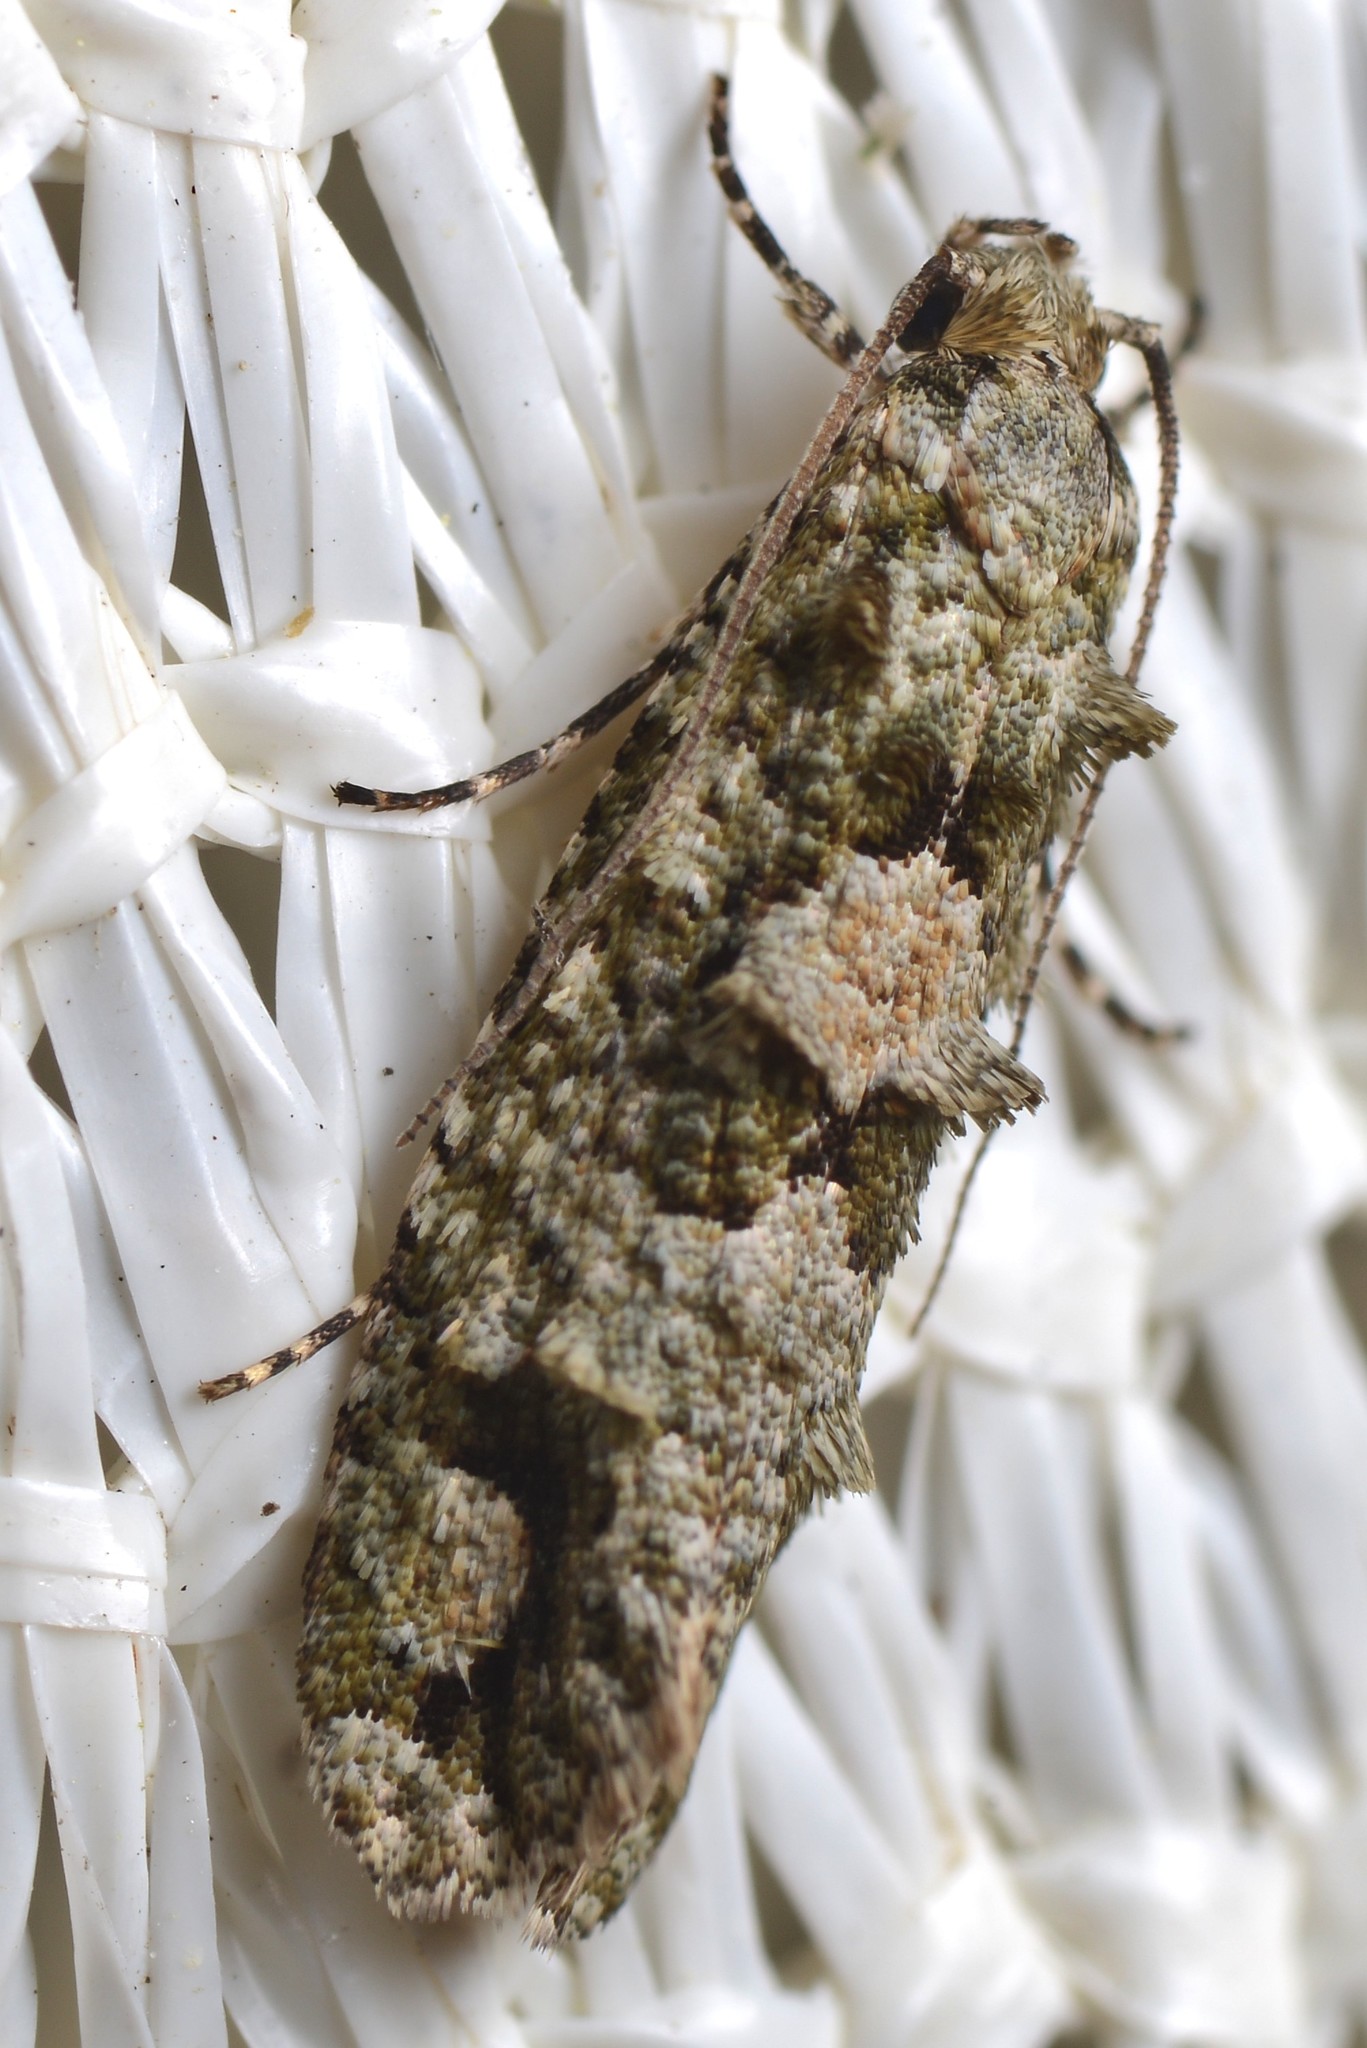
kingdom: Animalia
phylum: Arthropoda
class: Insecta
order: Lepidoptera
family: Tineidae
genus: Lysiphragma
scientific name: Lysiphragma howesii
